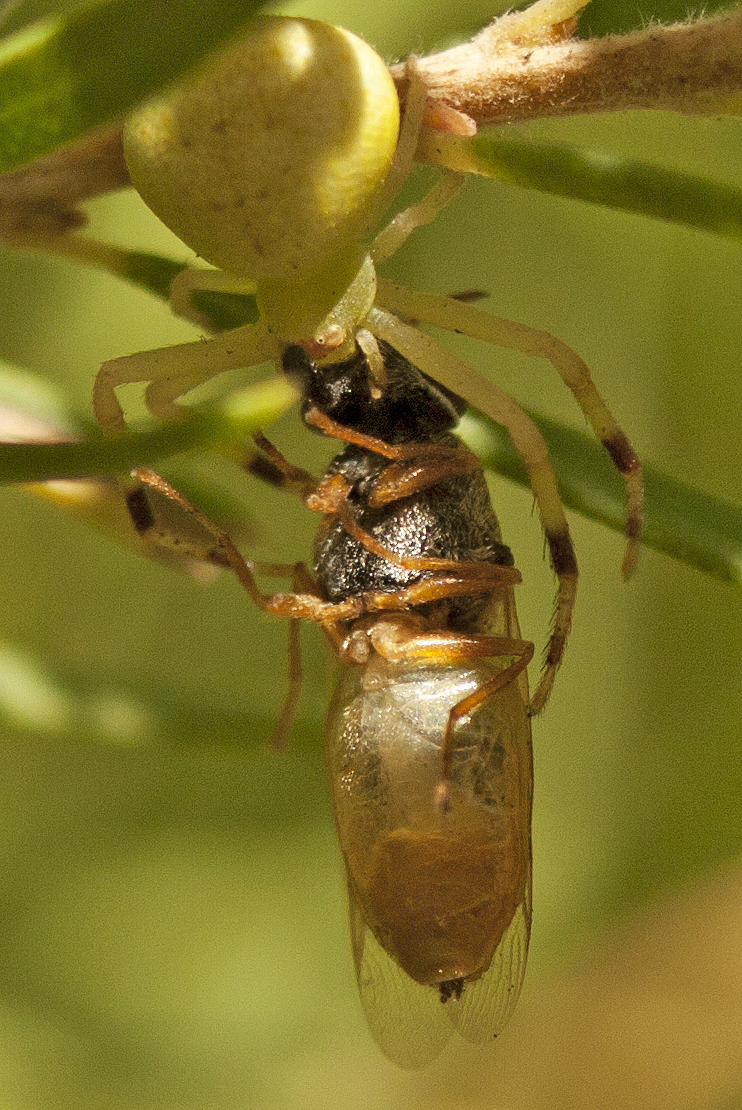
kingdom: Animalia
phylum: Arthropoda
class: Arachnida
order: Araneae
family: Thomisidae
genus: Boomerangiana
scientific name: Boomerangiana dimidiata
